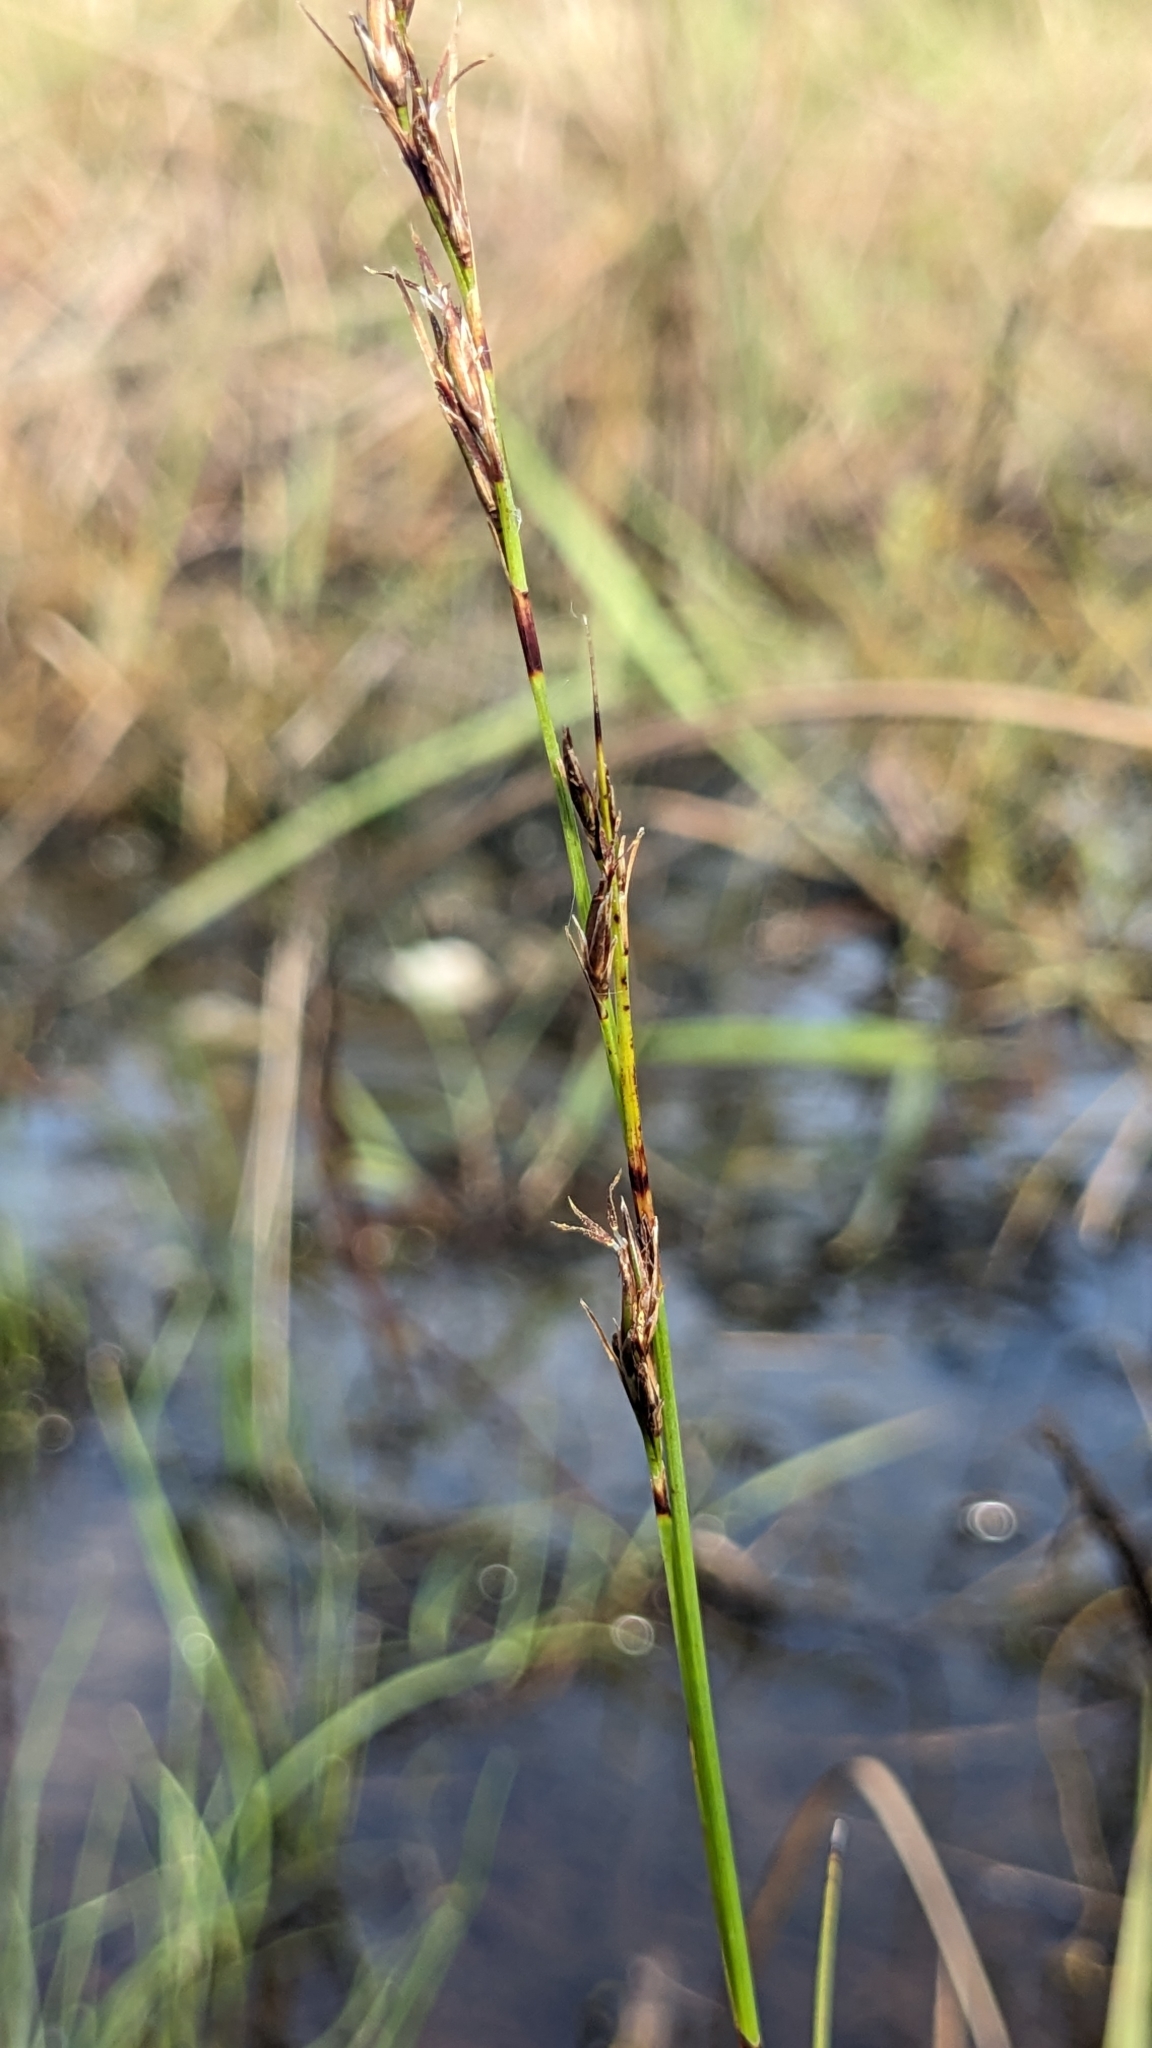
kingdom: Plantae
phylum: Tracheophyta
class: Liliopsida
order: Poales
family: Cyperaceae
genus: Schoenus
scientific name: Schoenus falcatus
